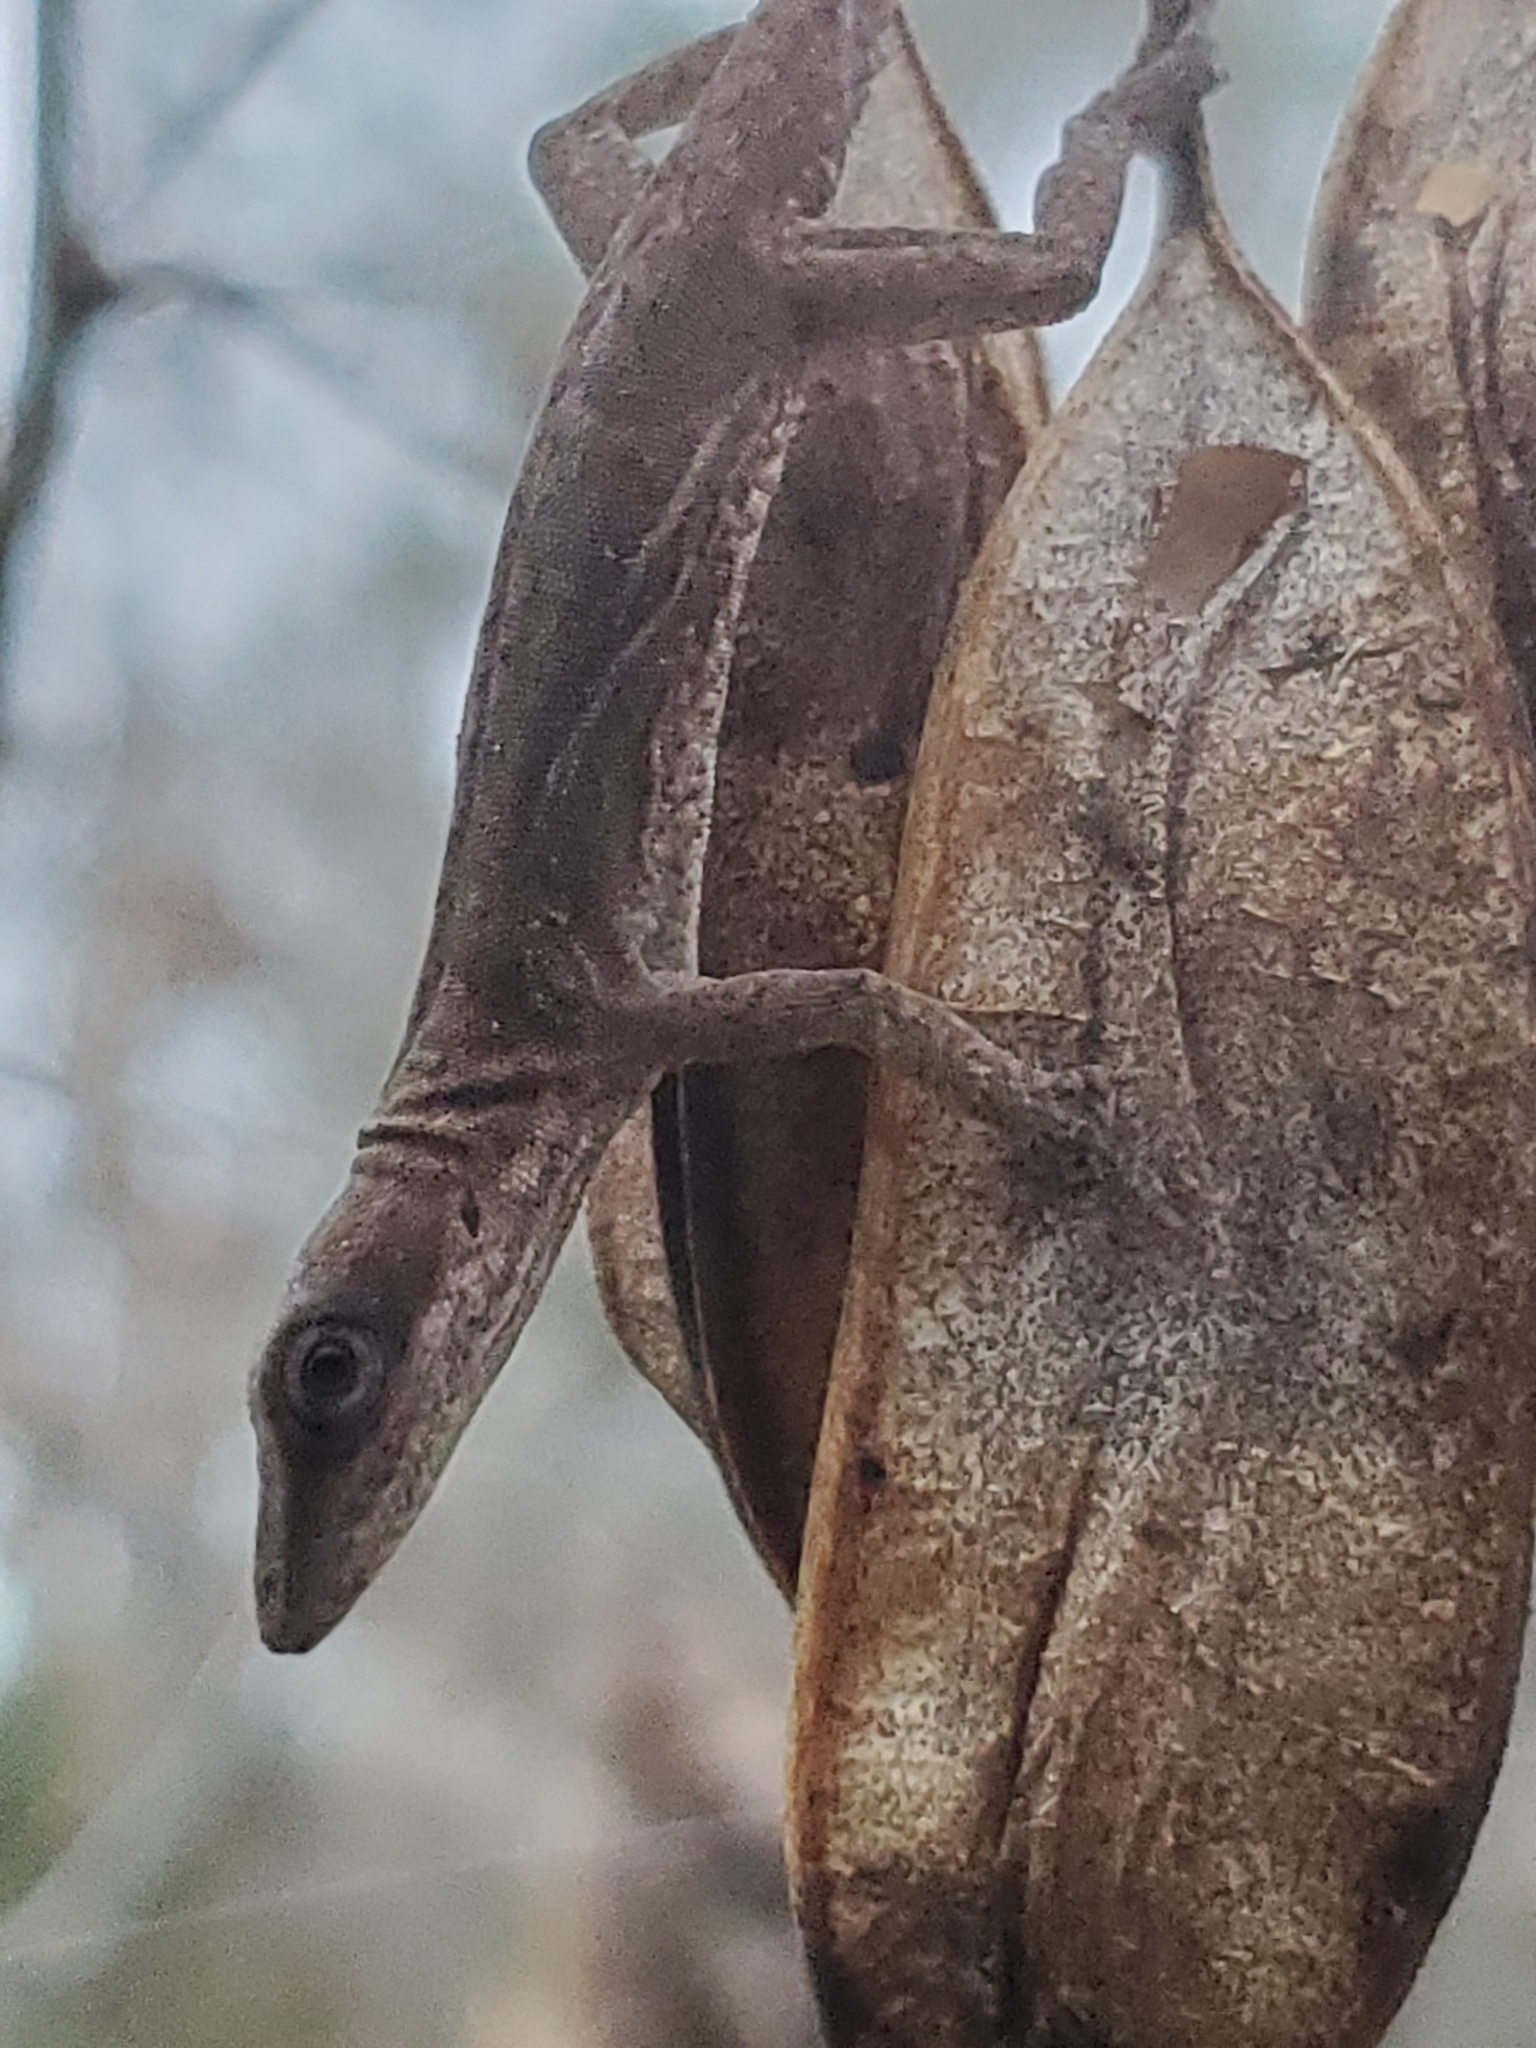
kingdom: Animalia
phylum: Chordata
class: Squamata
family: Dactyloidae
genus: Anolis
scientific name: Anolis carolinensis
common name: Green anole
